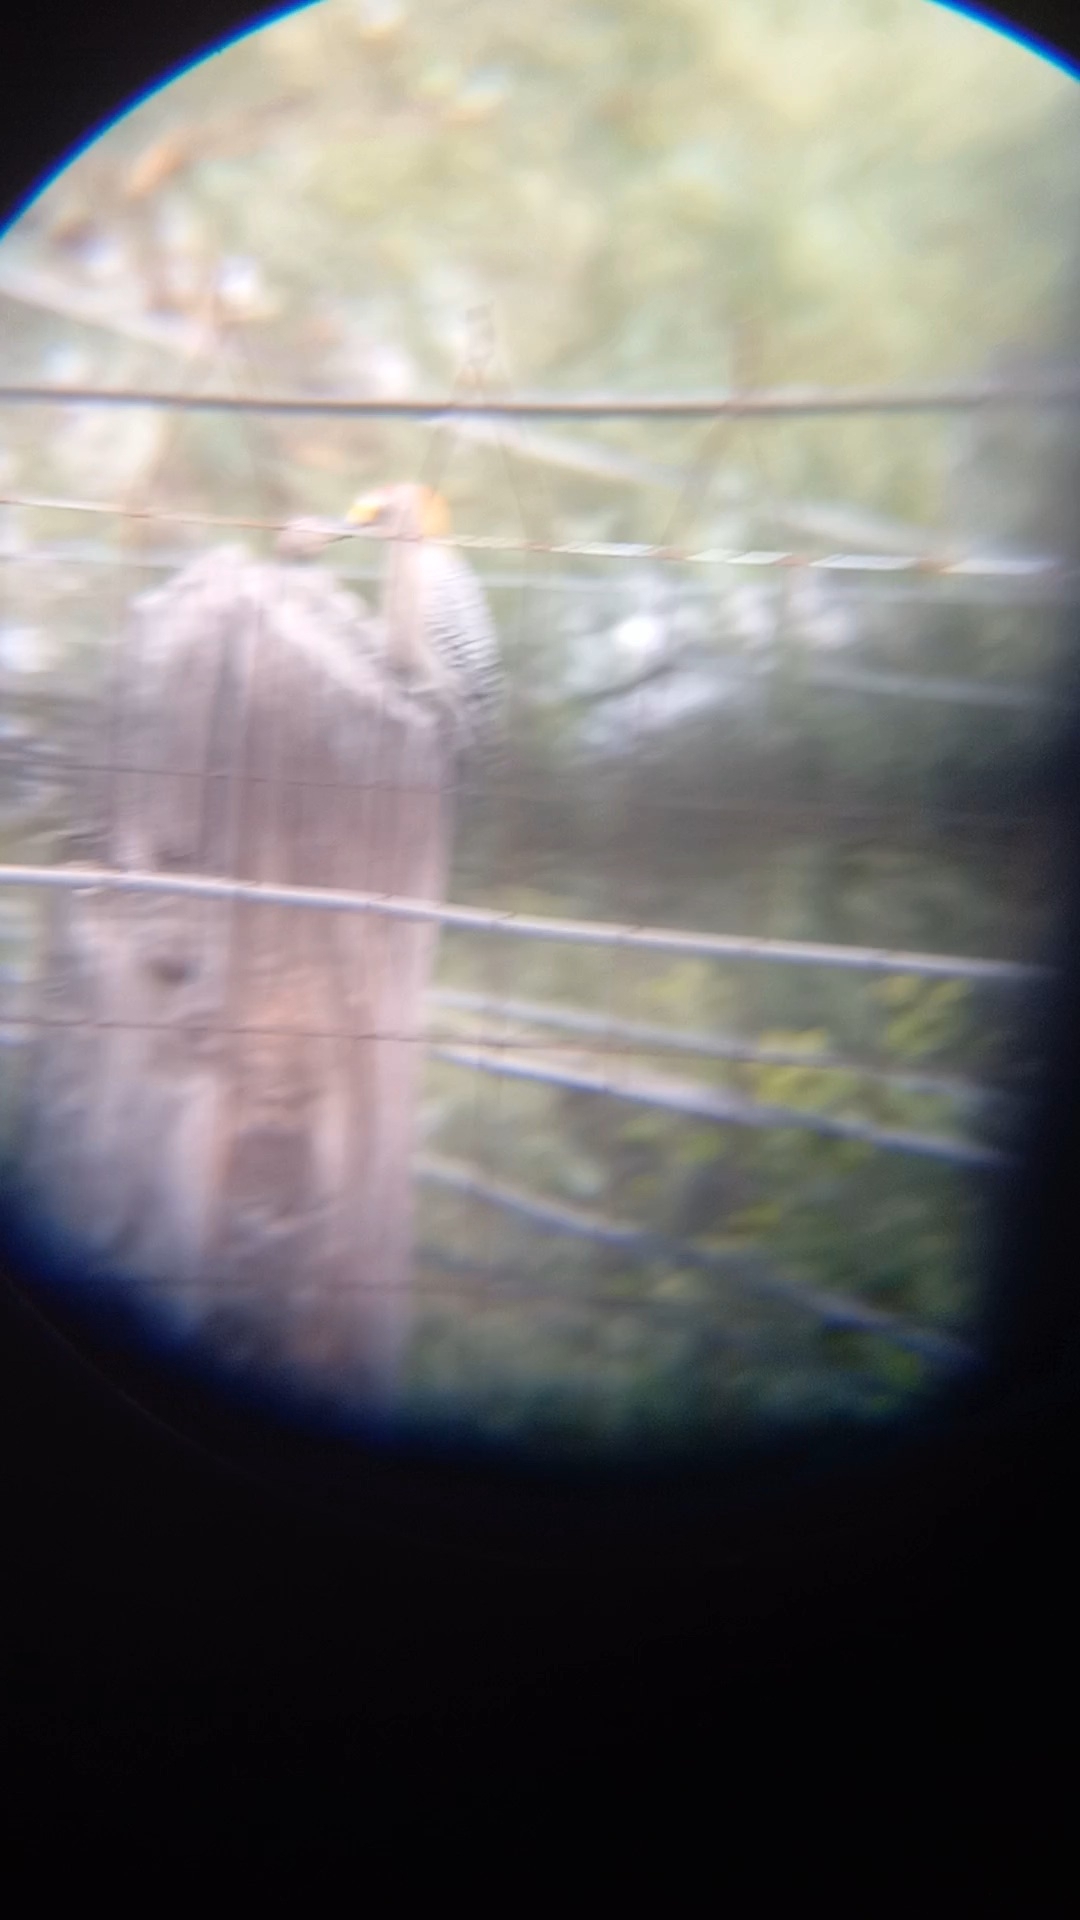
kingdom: Animalia
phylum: Chordata
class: Aves
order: Piciformes
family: Picidae
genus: Melanerpes
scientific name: Melanerpes aurifrons
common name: Golden-fronted woodpecker
